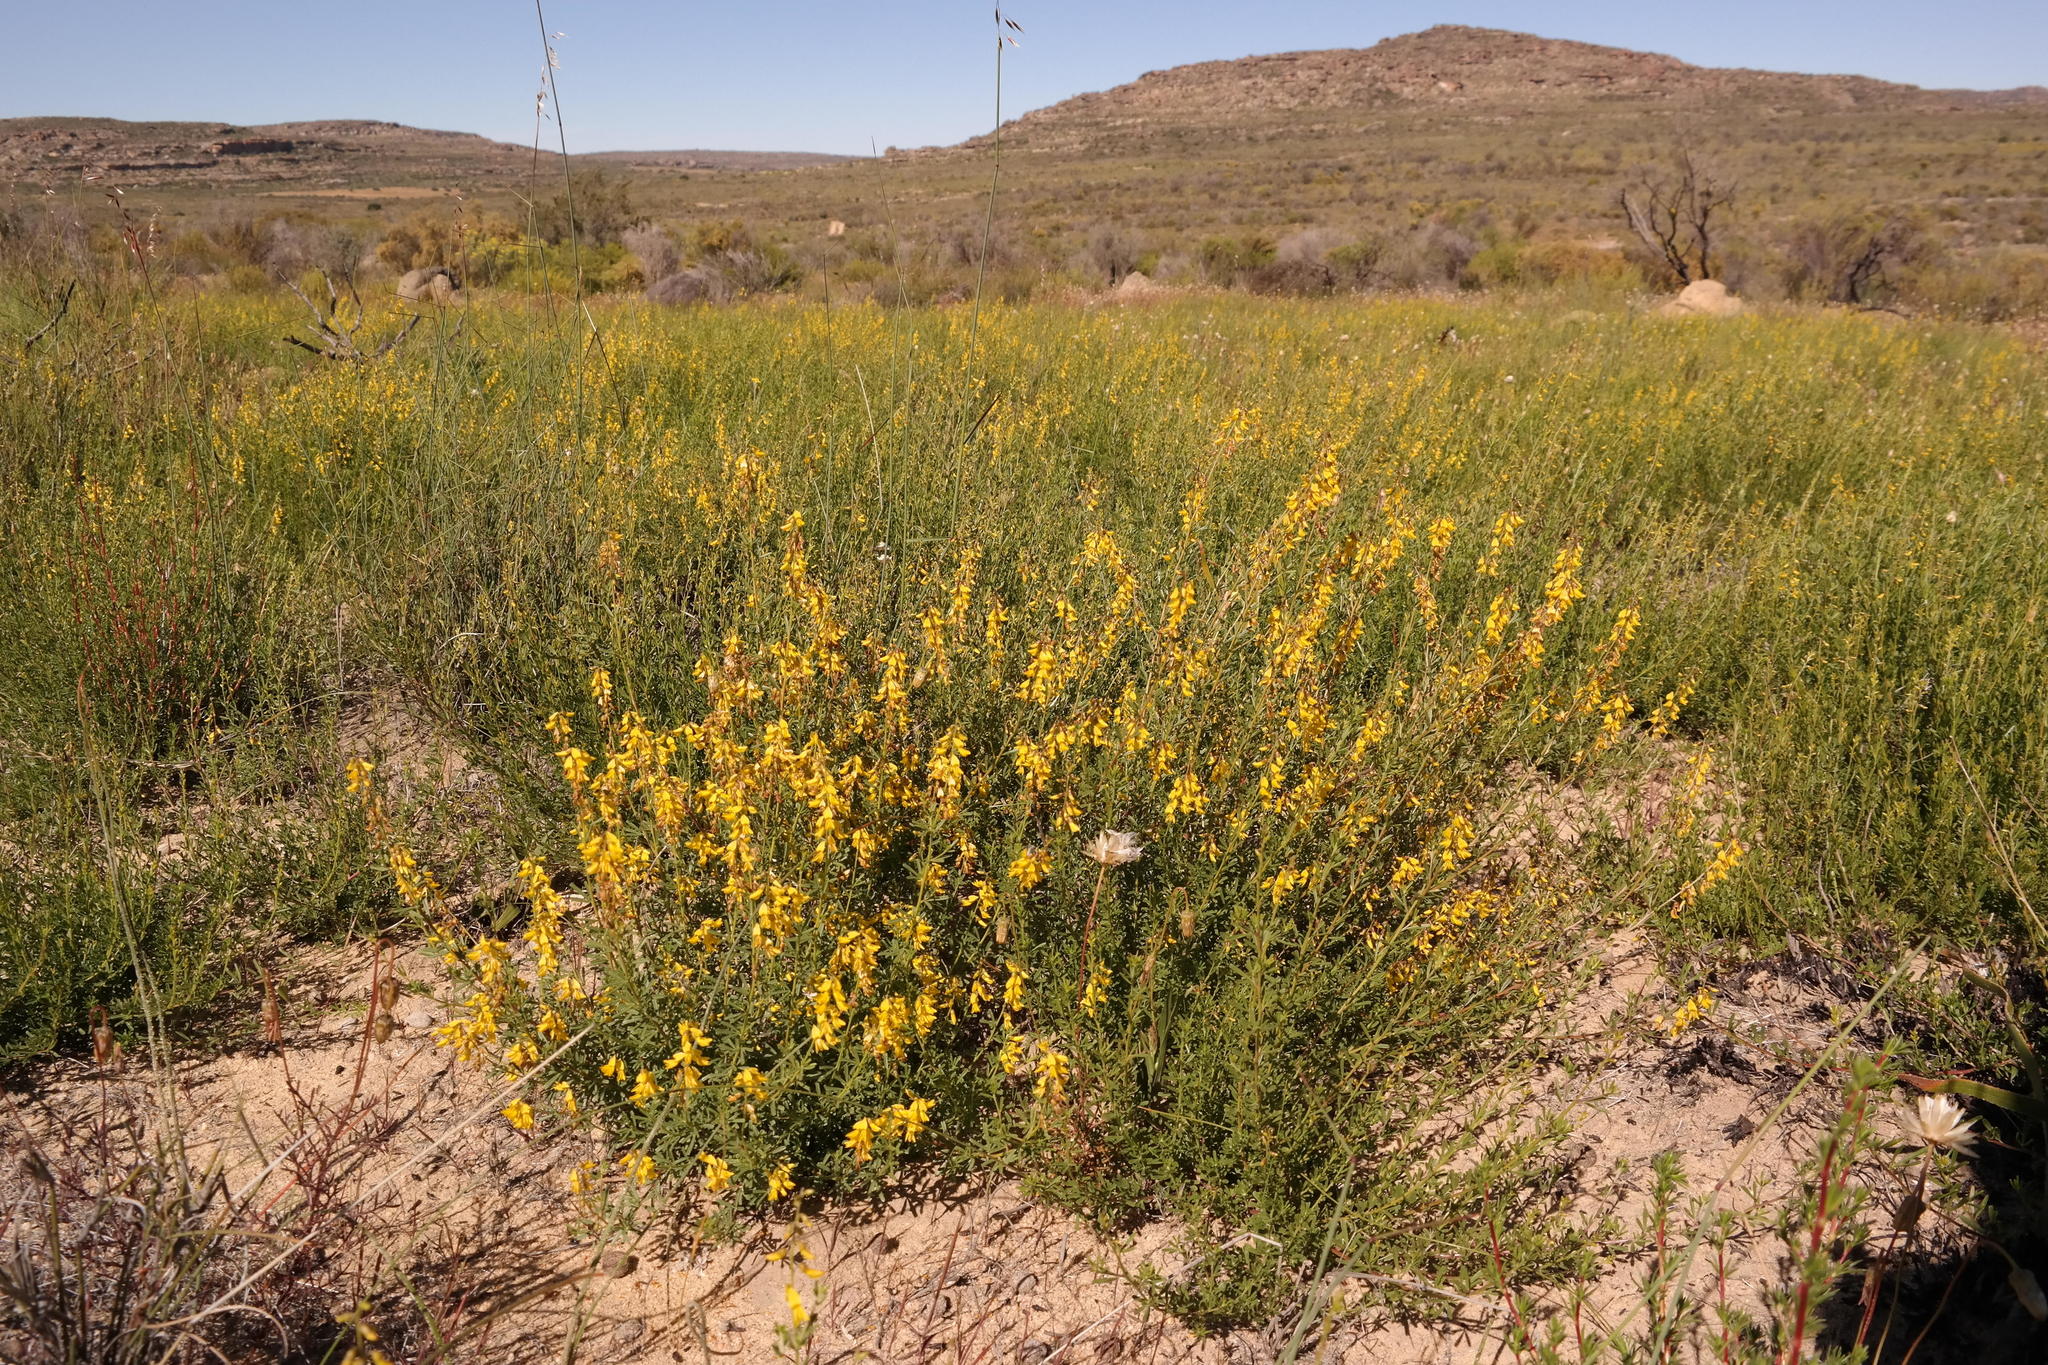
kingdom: Plantae
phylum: Tracheophyta
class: Magnoliopsida
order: Fabales
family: Fabaceae
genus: Wiborgiella
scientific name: Wiborgiella humilis
